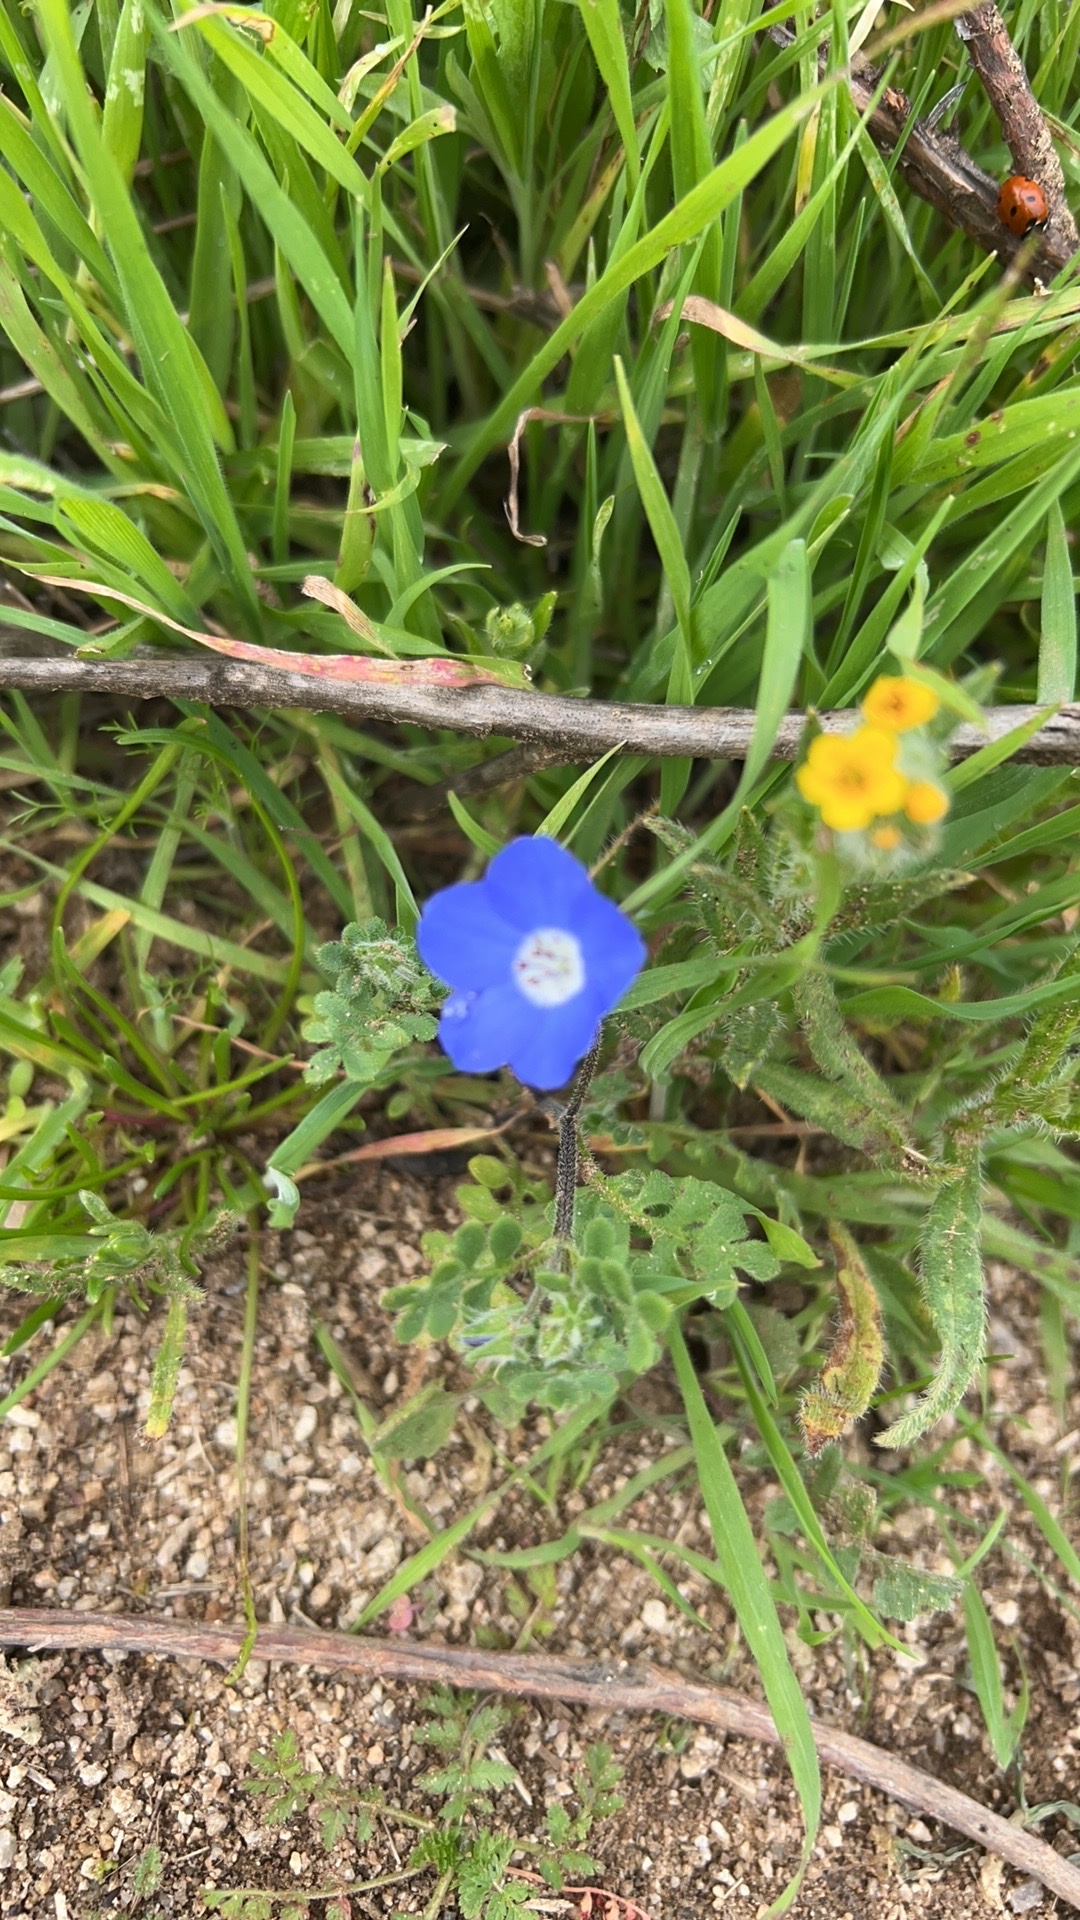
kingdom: Plantae
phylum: Tracheophyta
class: Magnoliopsida
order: Boraginales
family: Hydrophyllaceae
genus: Nemophila
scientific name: Nemophila menziesii
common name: Baby's-blue-eyes
